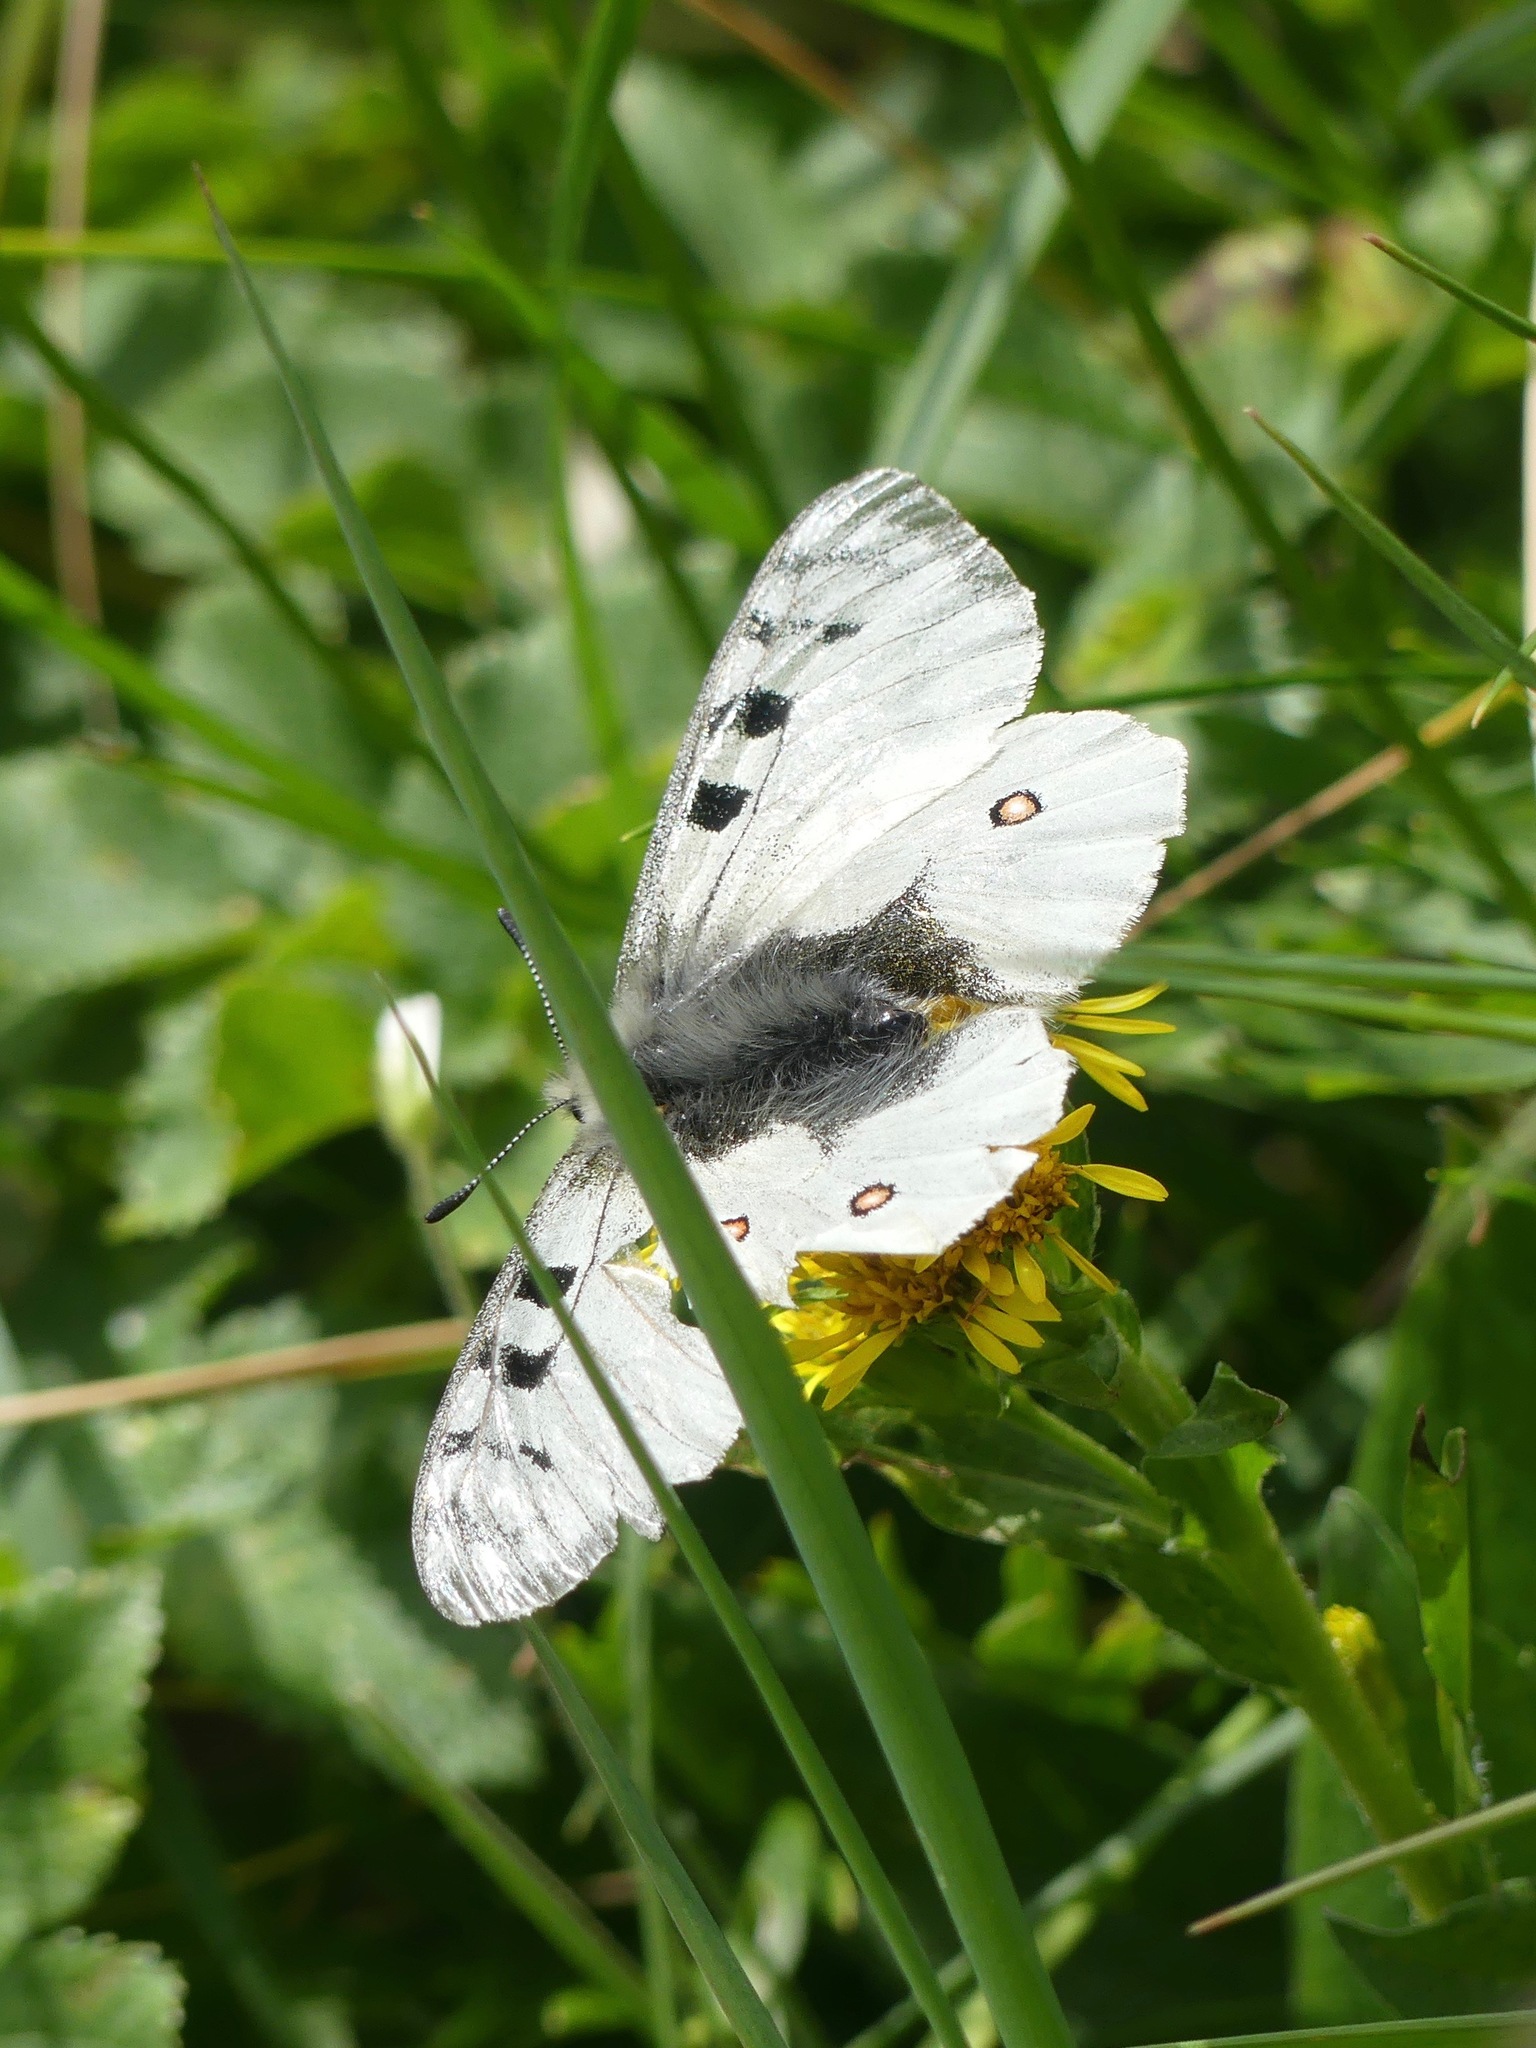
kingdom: Animalia
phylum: Arthropoda
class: Insecta
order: Lepidoptera
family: Papilionidae
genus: Parnassius
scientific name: Parnassius phoebus
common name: Small apollo
